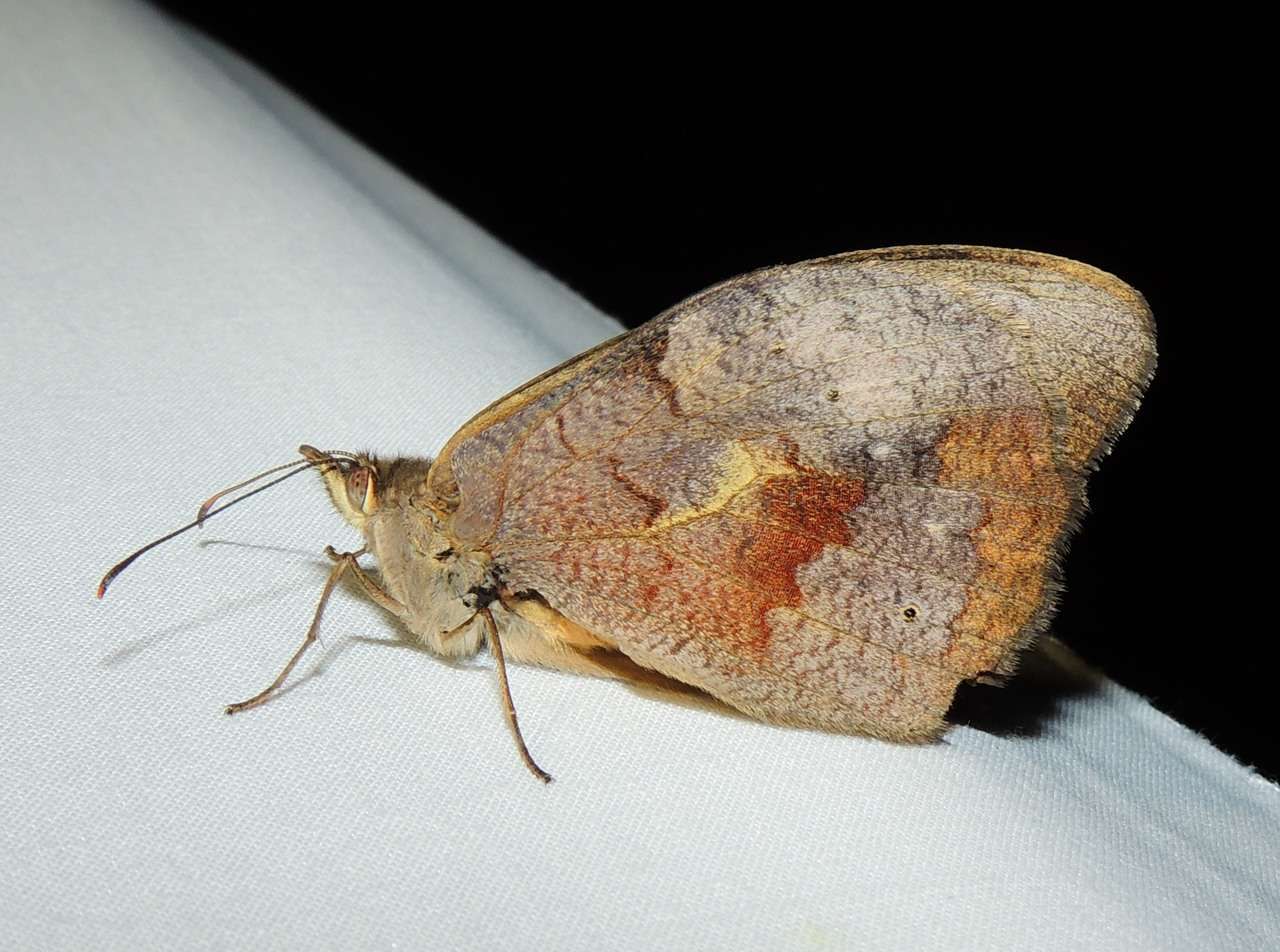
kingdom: Animalia
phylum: Arthropoda
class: Insecta
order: Lepidoptera
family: Nymphalidae
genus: Heteronympha
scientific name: Heteronympha merope
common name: Common brown
